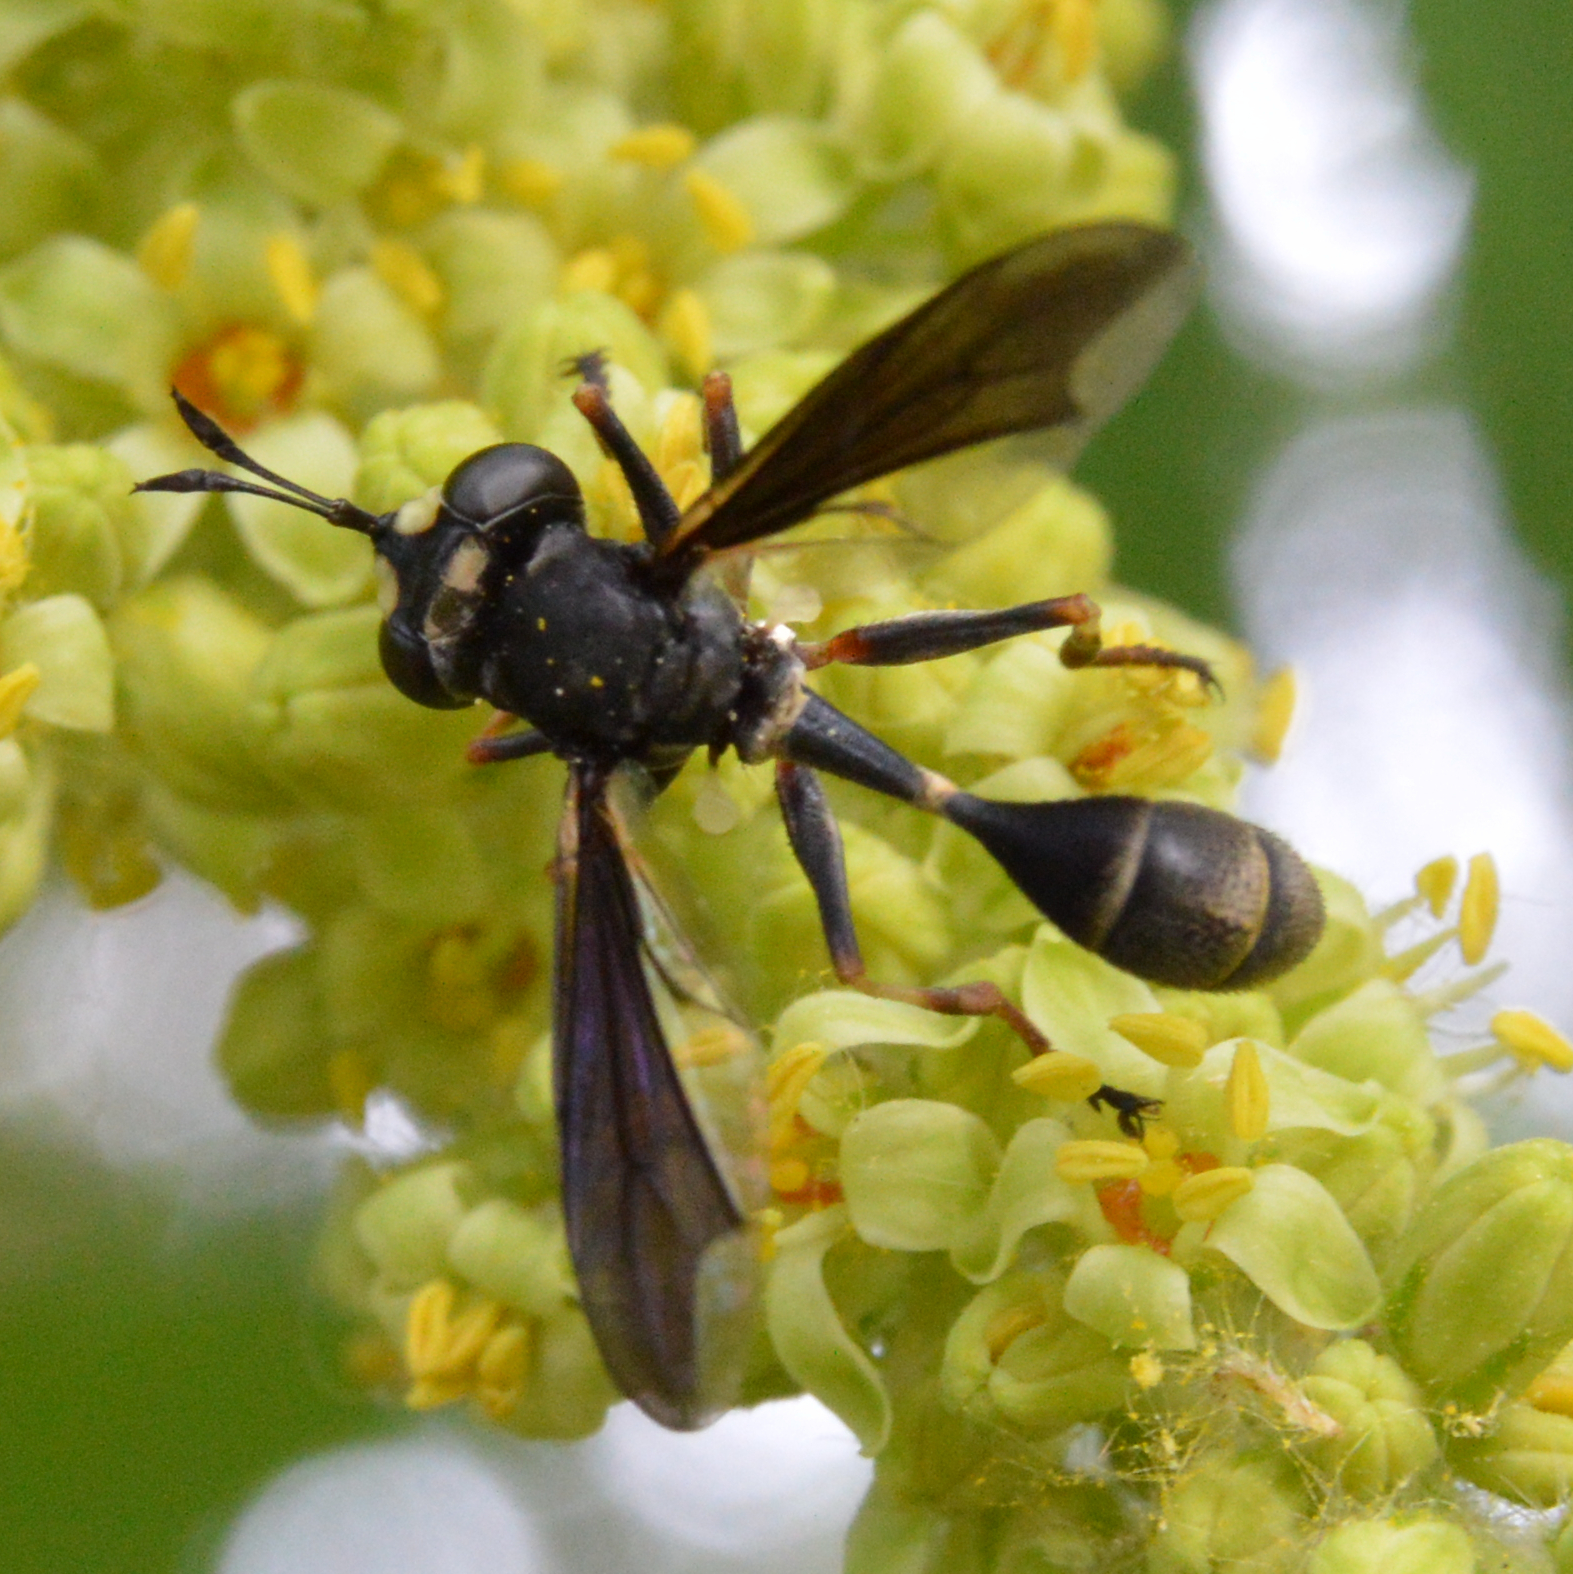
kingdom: Animalia
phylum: Arthropoda
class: Insecta
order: Diptera
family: Conopidae
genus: Physocephala
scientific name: Physocephala tibialis
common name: Common eastern physocephala
